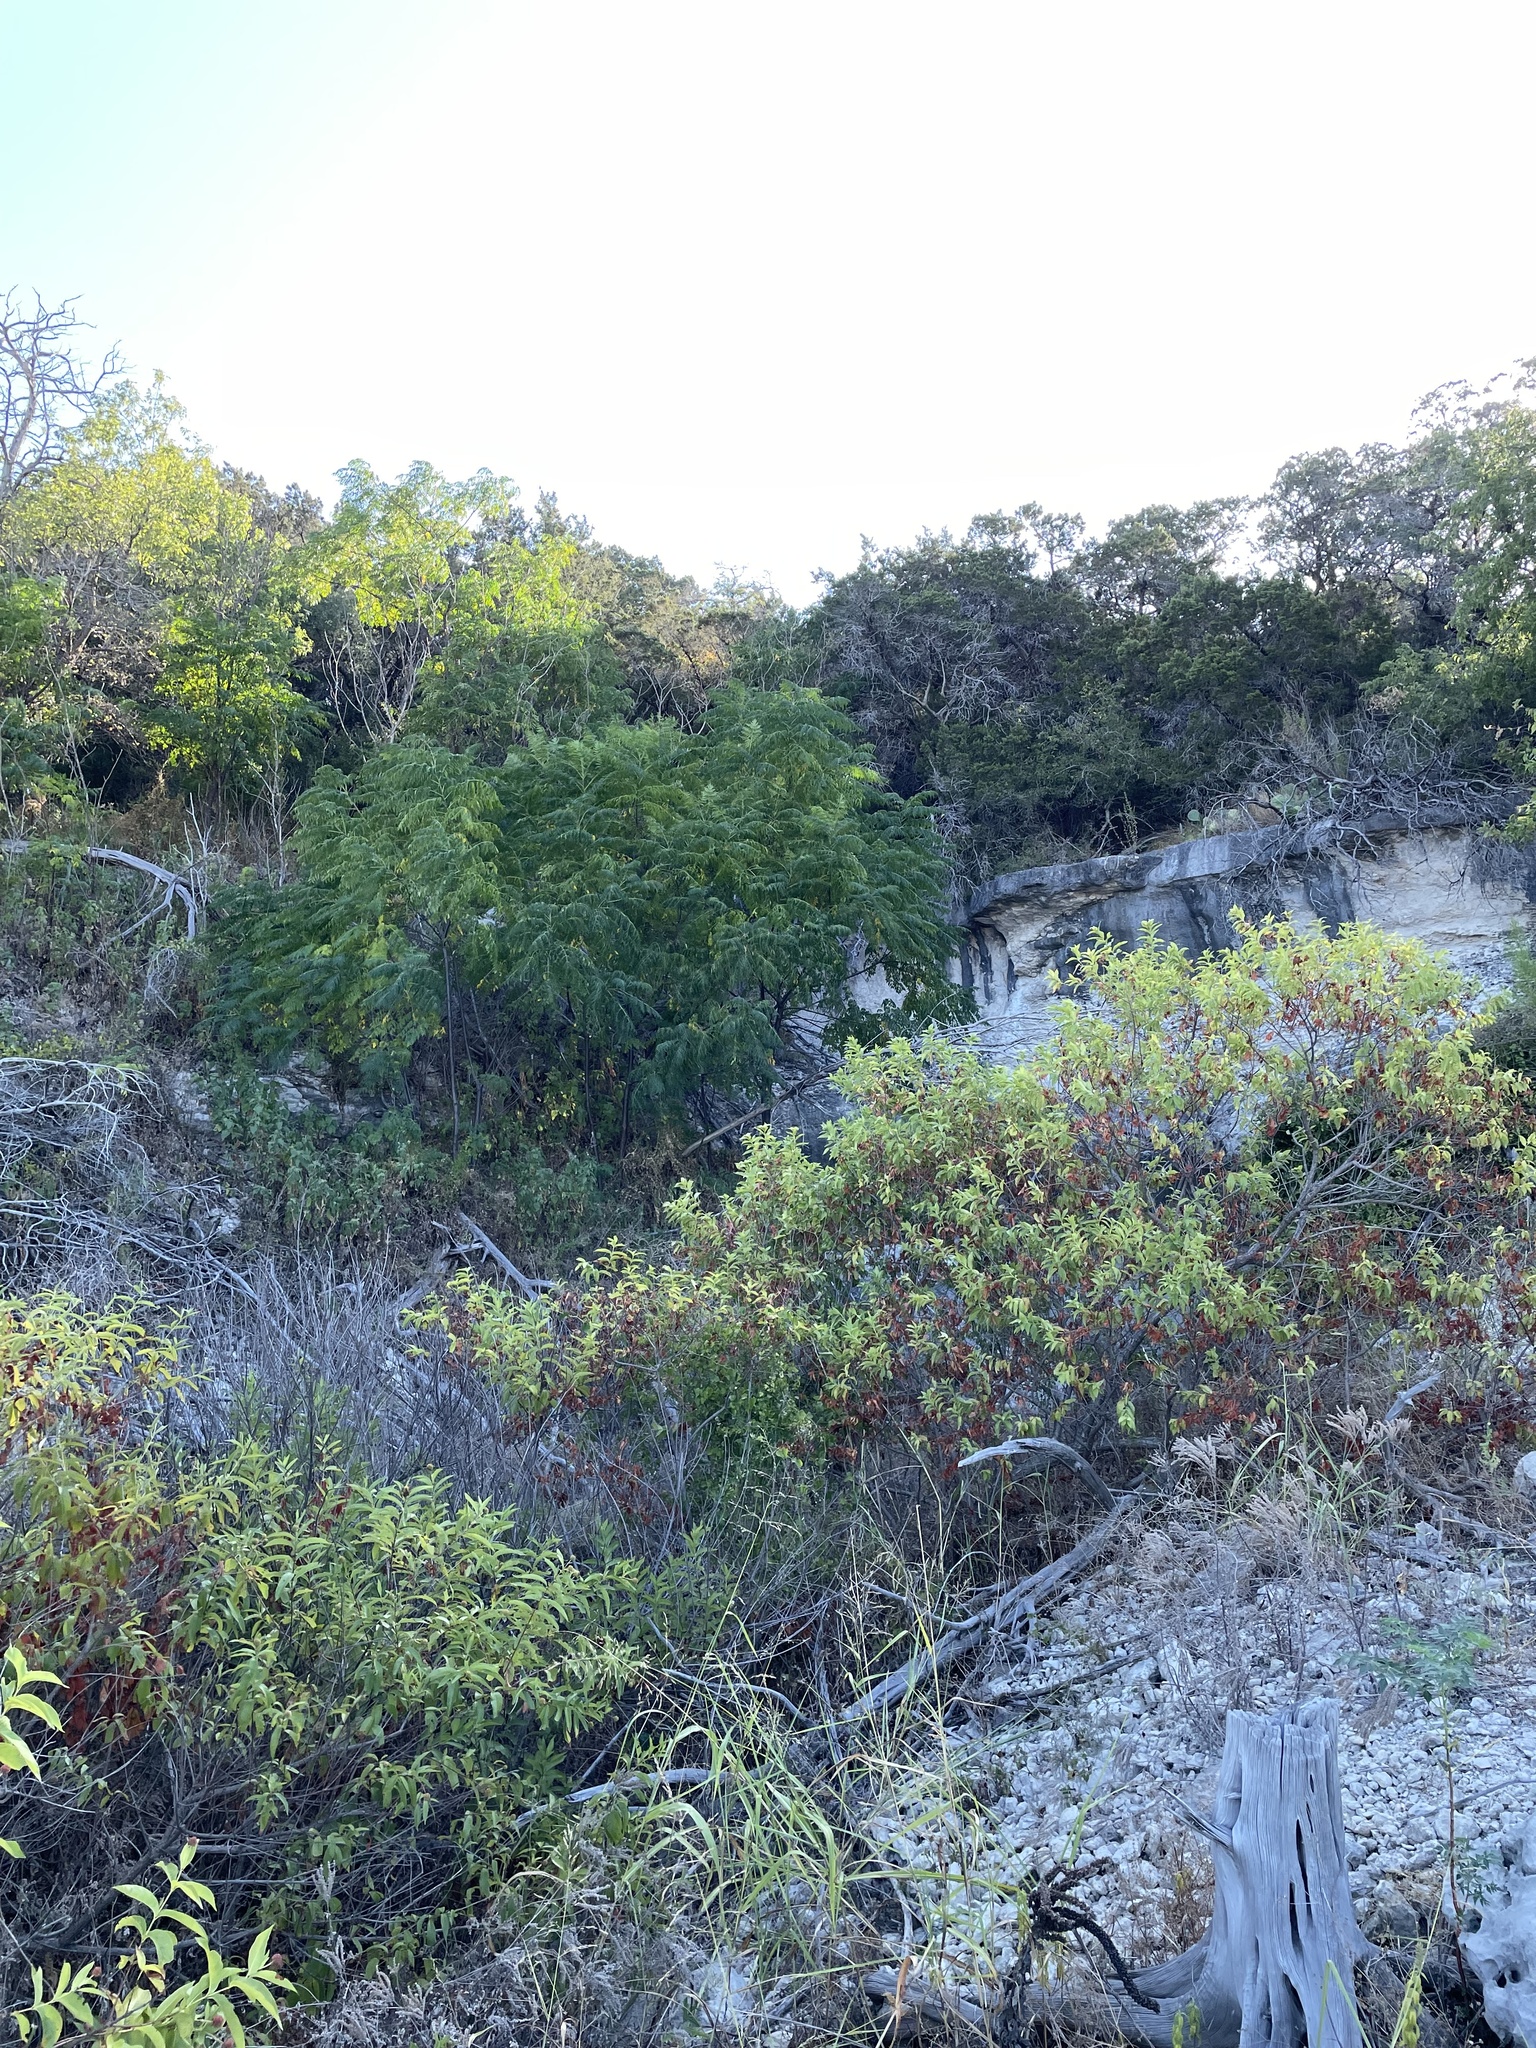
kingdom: Plantae
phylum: Tracheophyta
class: Magnoliopsida
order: Sapindales
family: Meliaceae
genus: Melia
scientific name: Melia azedarach
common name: Chinaberrytree
